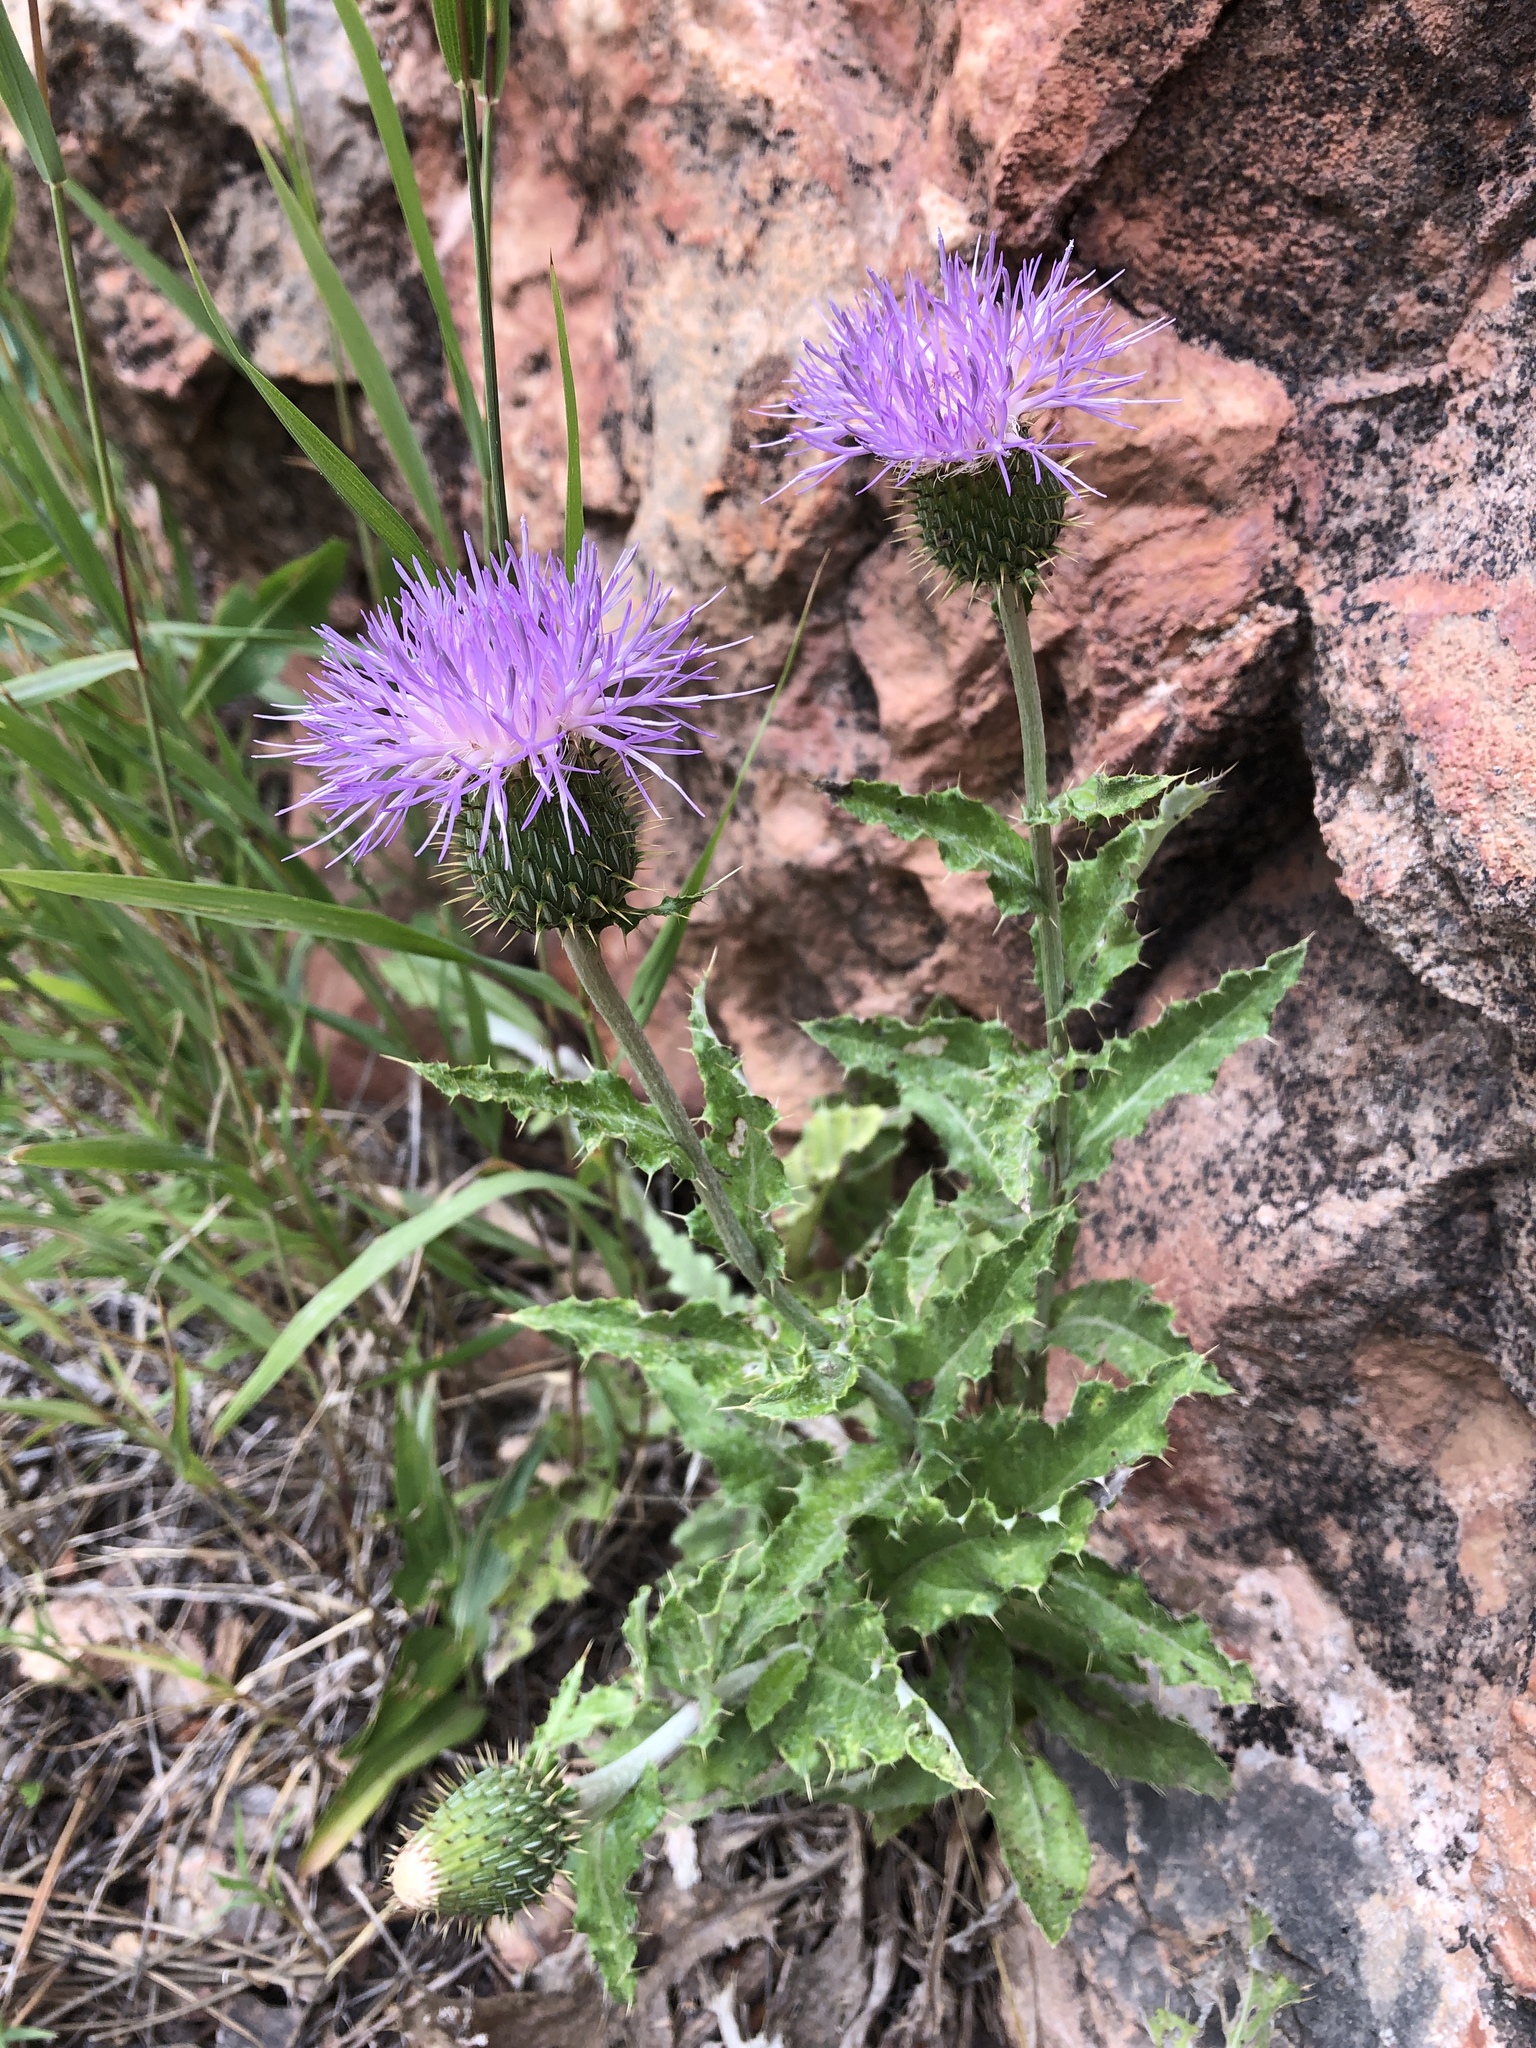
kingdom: Plantae
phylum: Tracheophyta
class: Magnoliopsida
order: Asterales
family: Asteraceae
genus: Cirsium
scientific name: Cirsium flodmanii
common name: Flodman's thistle
